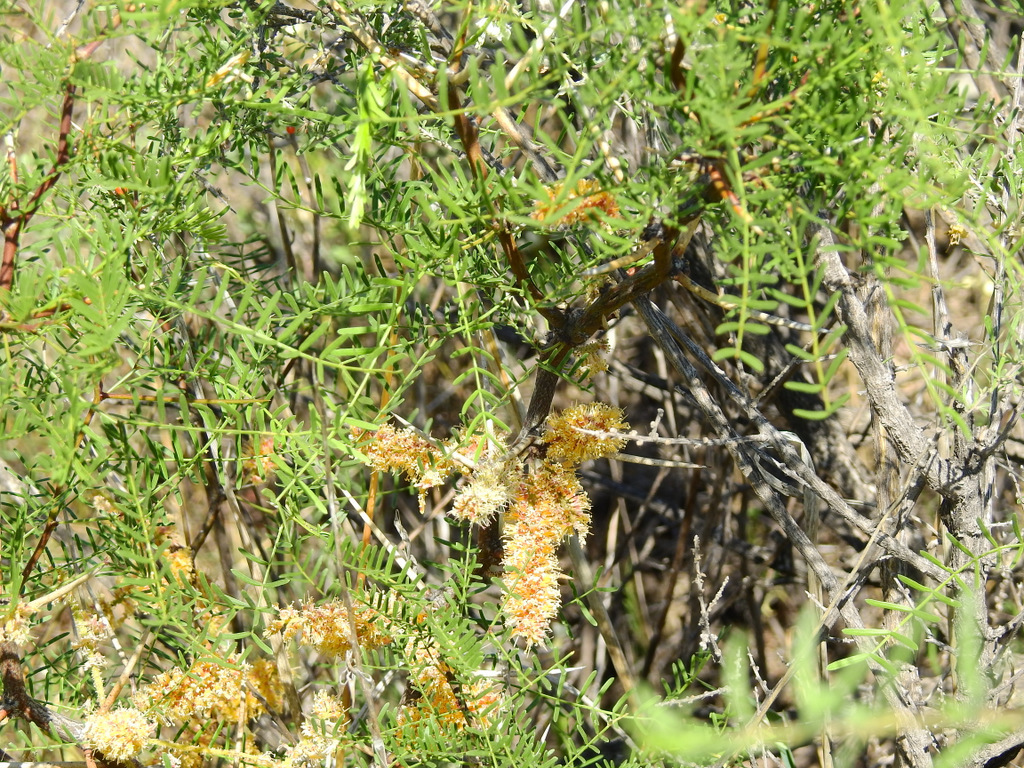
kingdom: Plantae
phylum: Tracheophyta
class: Magnoliopsida
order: Fabales
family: Fabaceae
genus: Prosopis
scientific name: Prosopis flexuosa
